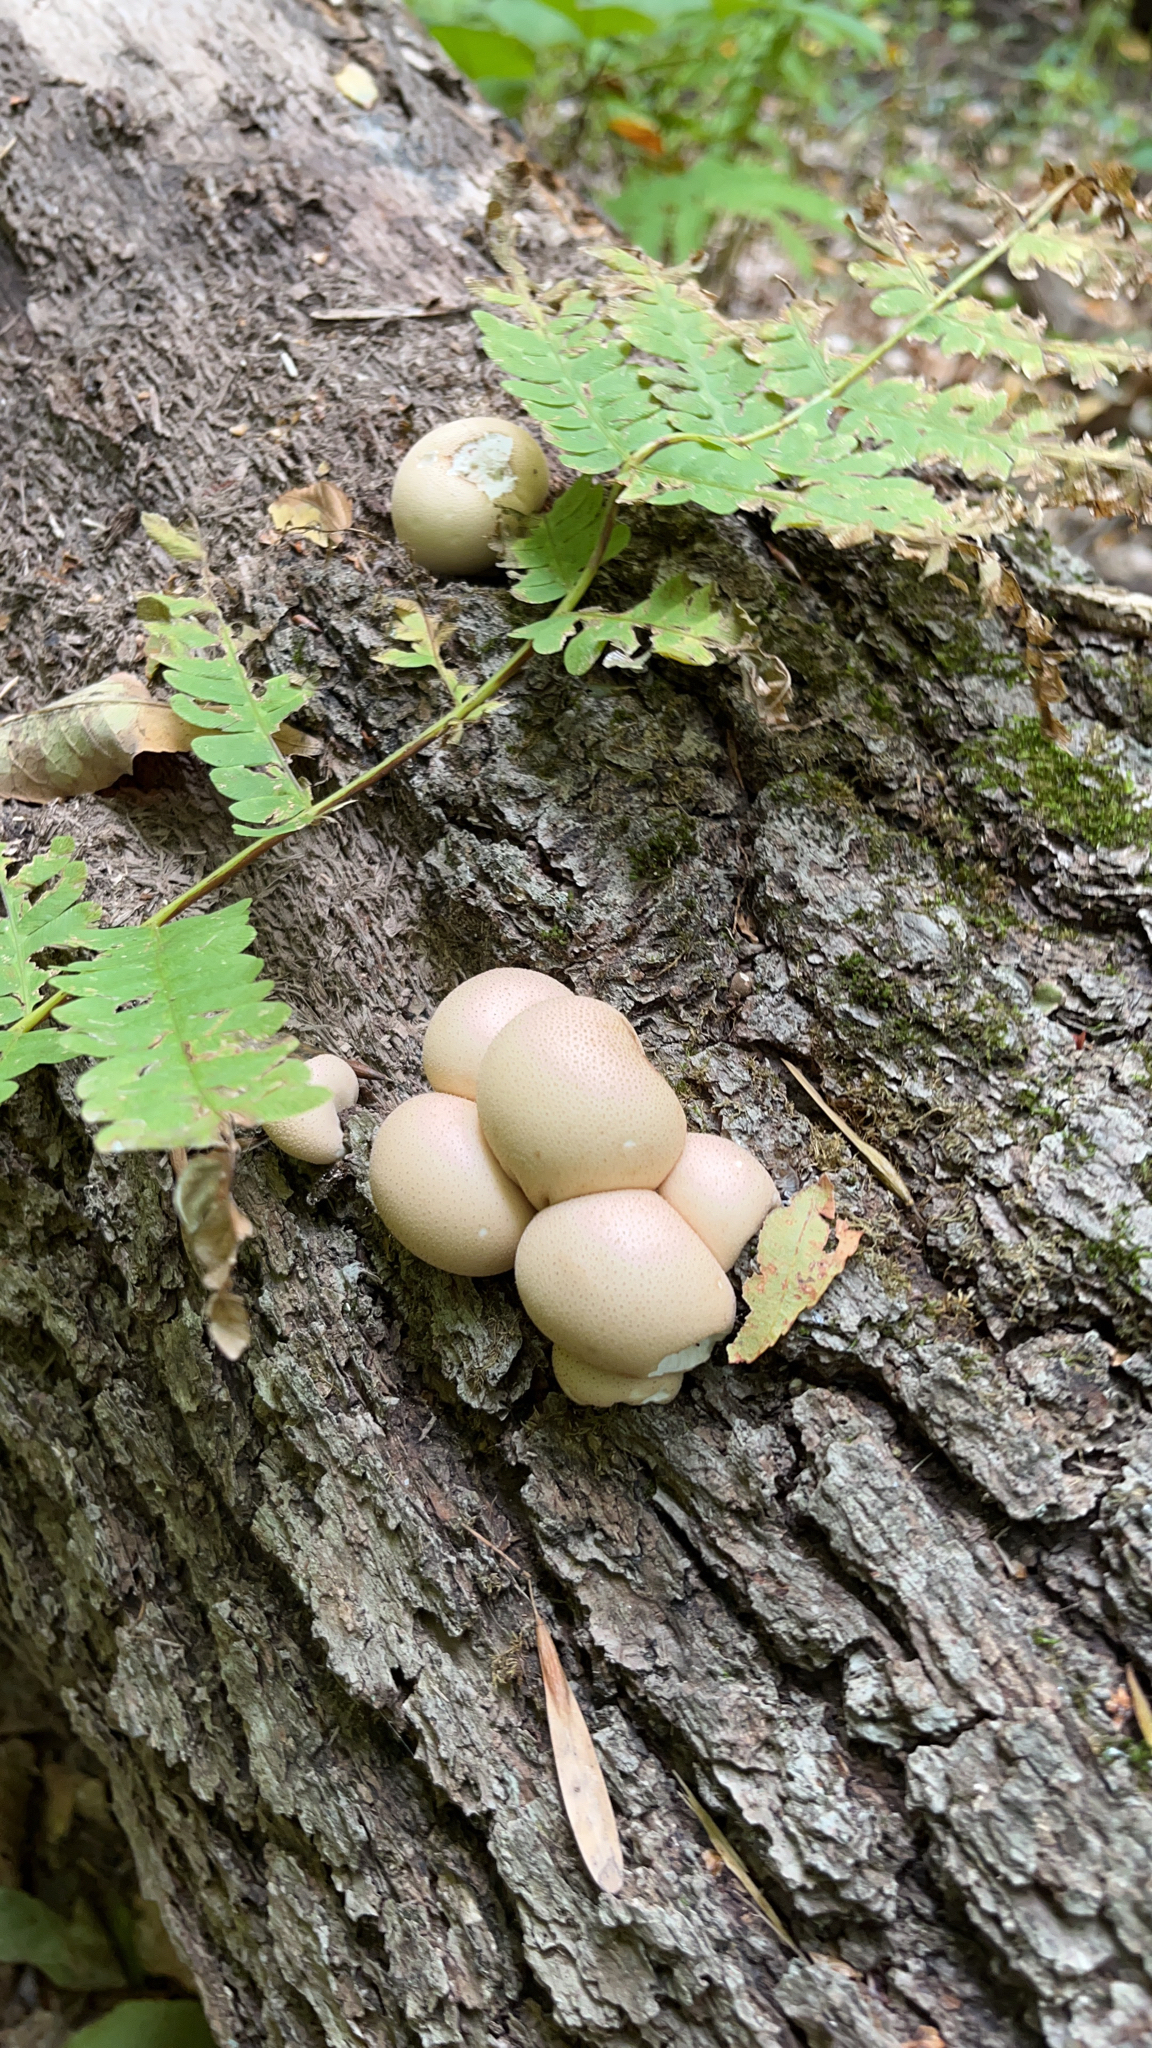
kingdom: Fungi
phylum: Basidiomycota
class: Agaricomycetes
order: Agaricales
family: Lycoperdaceae
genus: Apioperdon
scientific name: Apioperdon pyriforme
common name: Pear-shaped puffball
